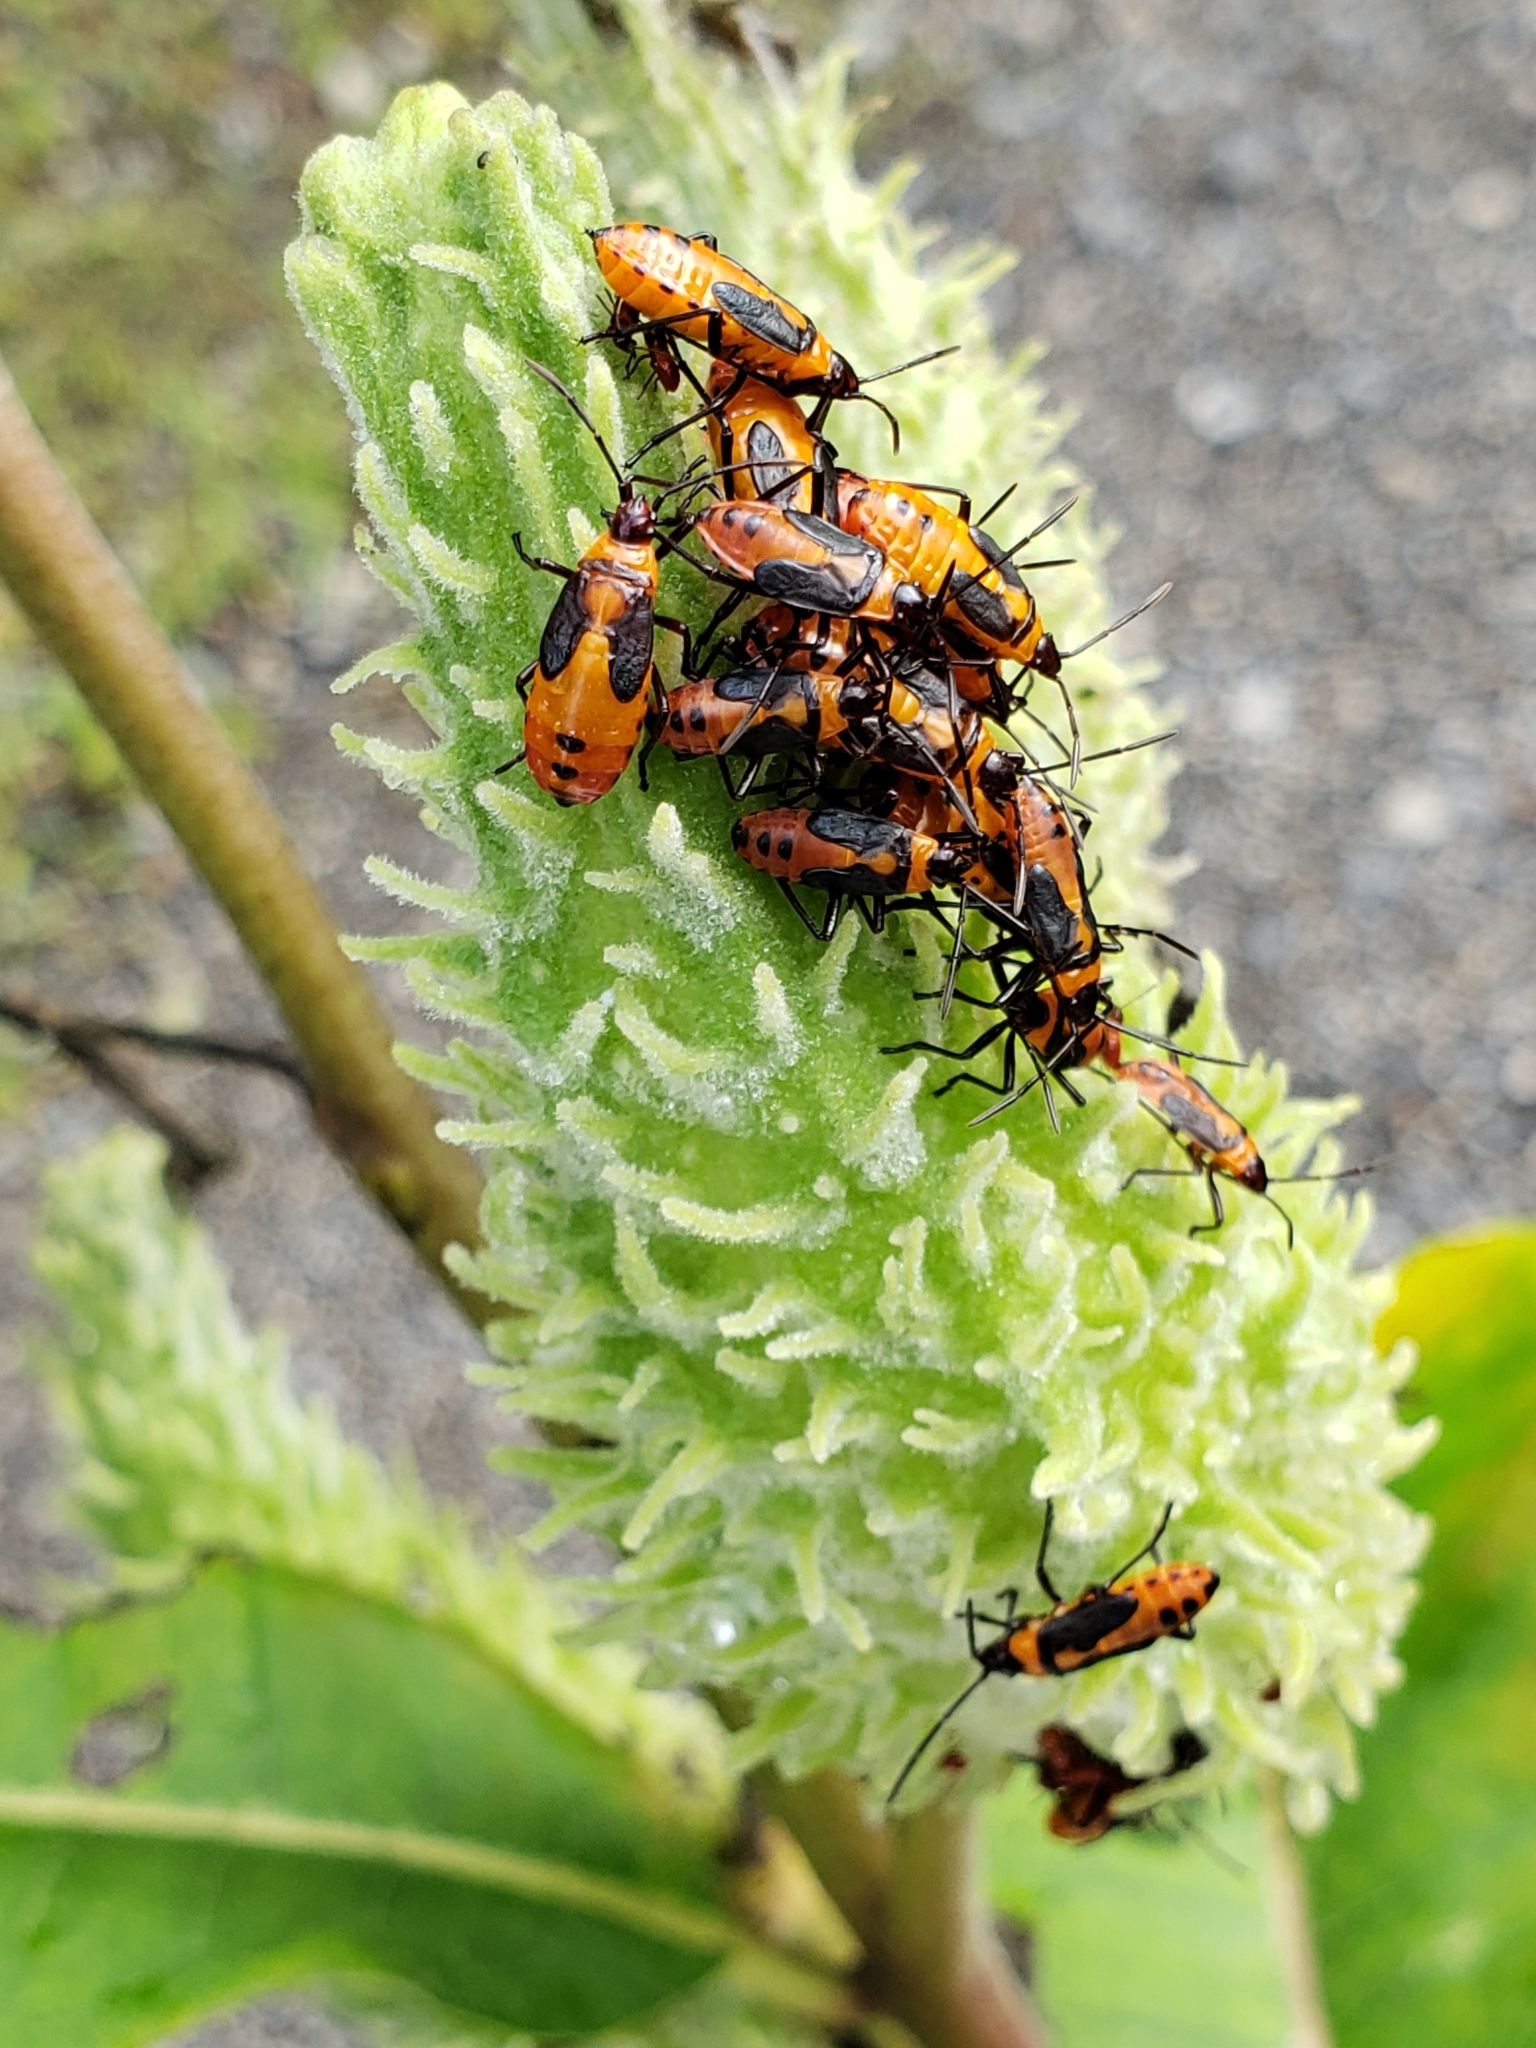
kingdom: Animalia
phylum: Arthropoda
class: Insecta
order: Hemiptera
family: Lygaeidae
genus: Oncopeltus
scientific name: Oncopeltus fasciatus
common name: Large milkweed bug
